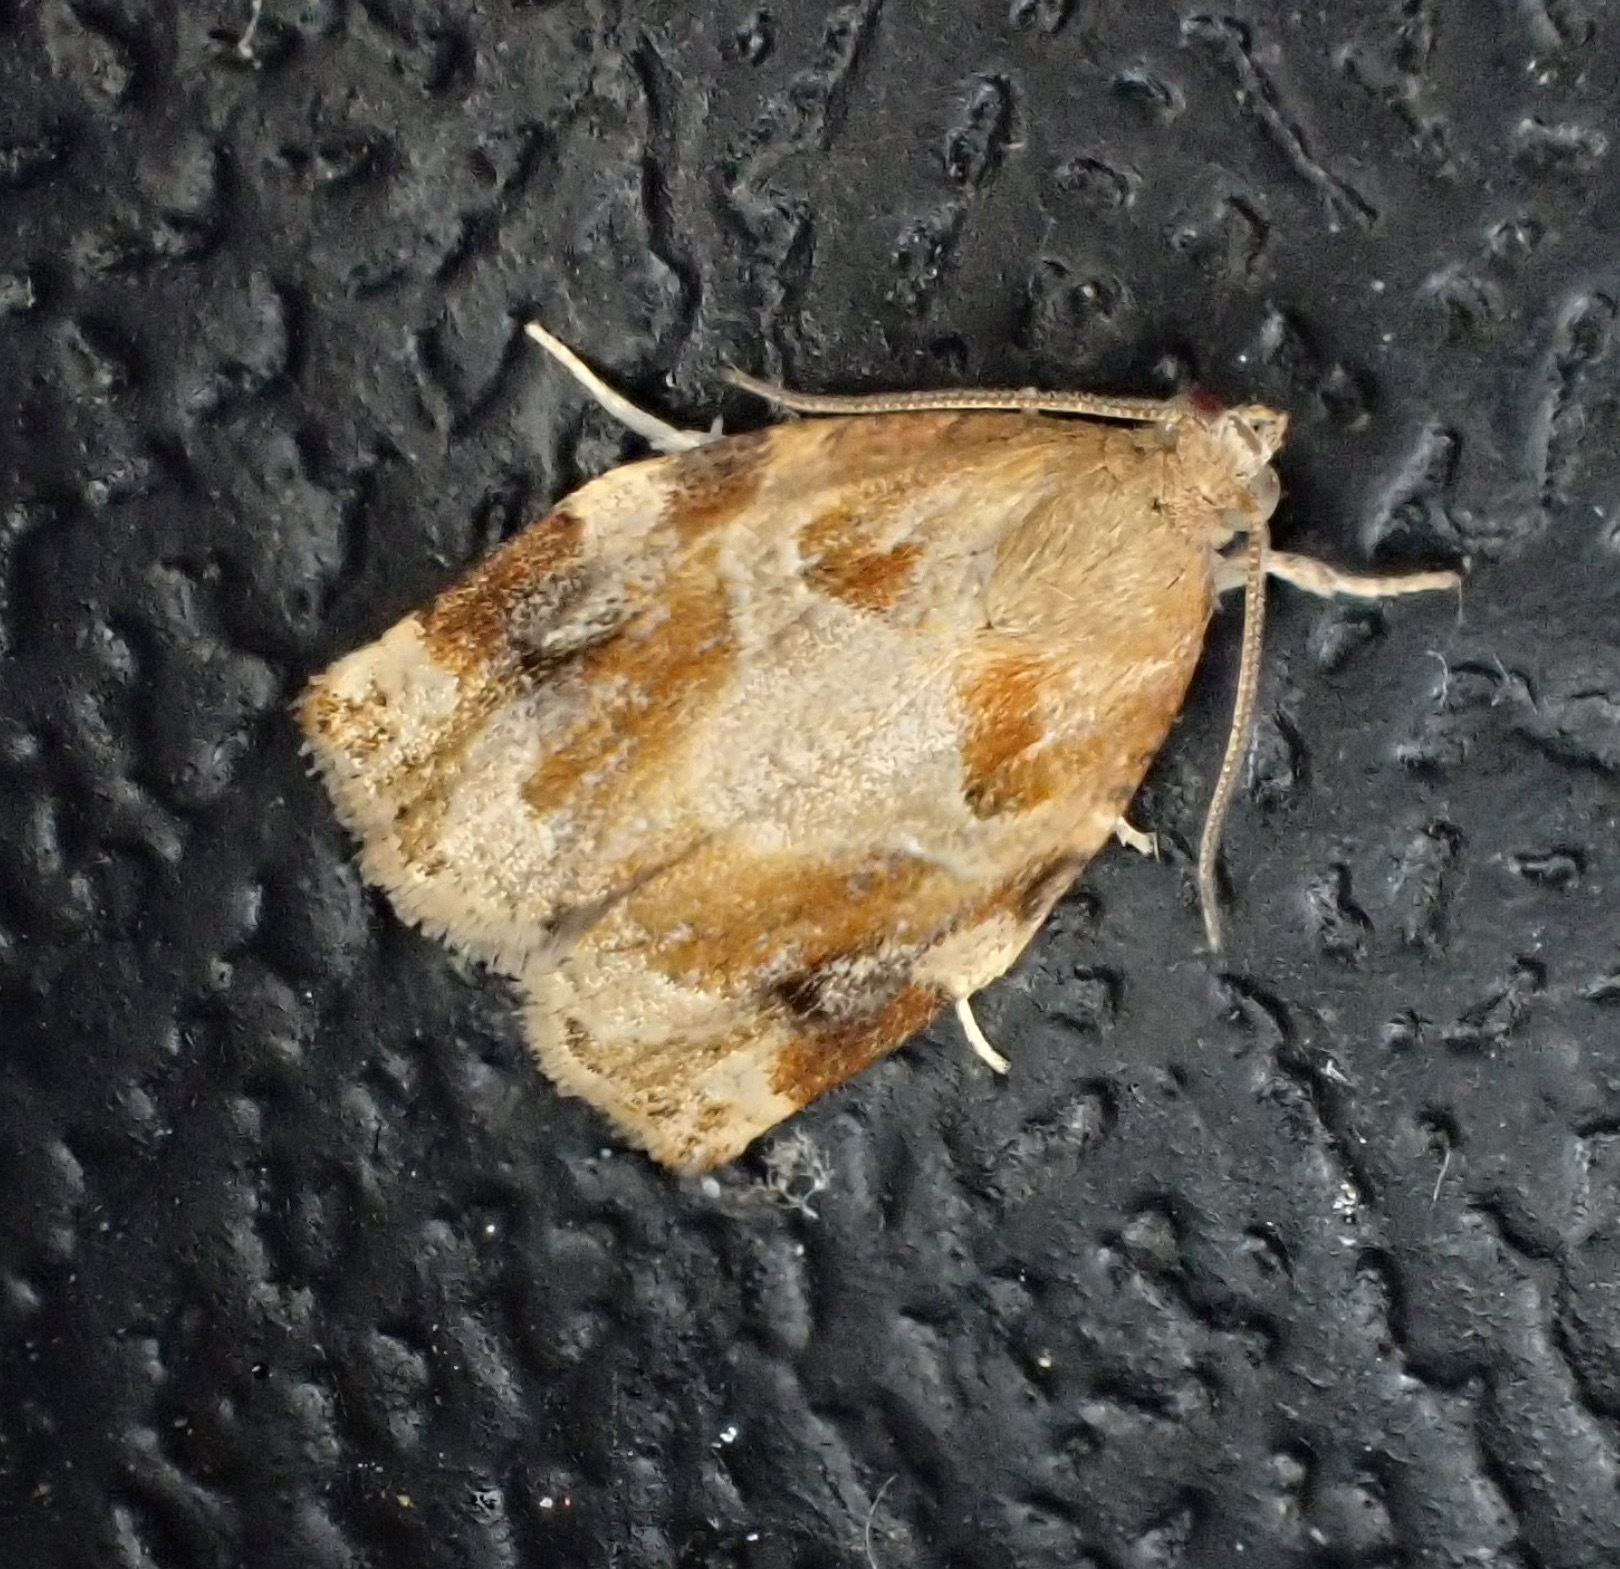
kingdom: Animalia
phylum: Arthropoda
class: Insecta
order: Lepidoptera
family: Tortricidae
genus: Archips
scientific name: Archips xylosteana
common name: Variegated golden tortrix
